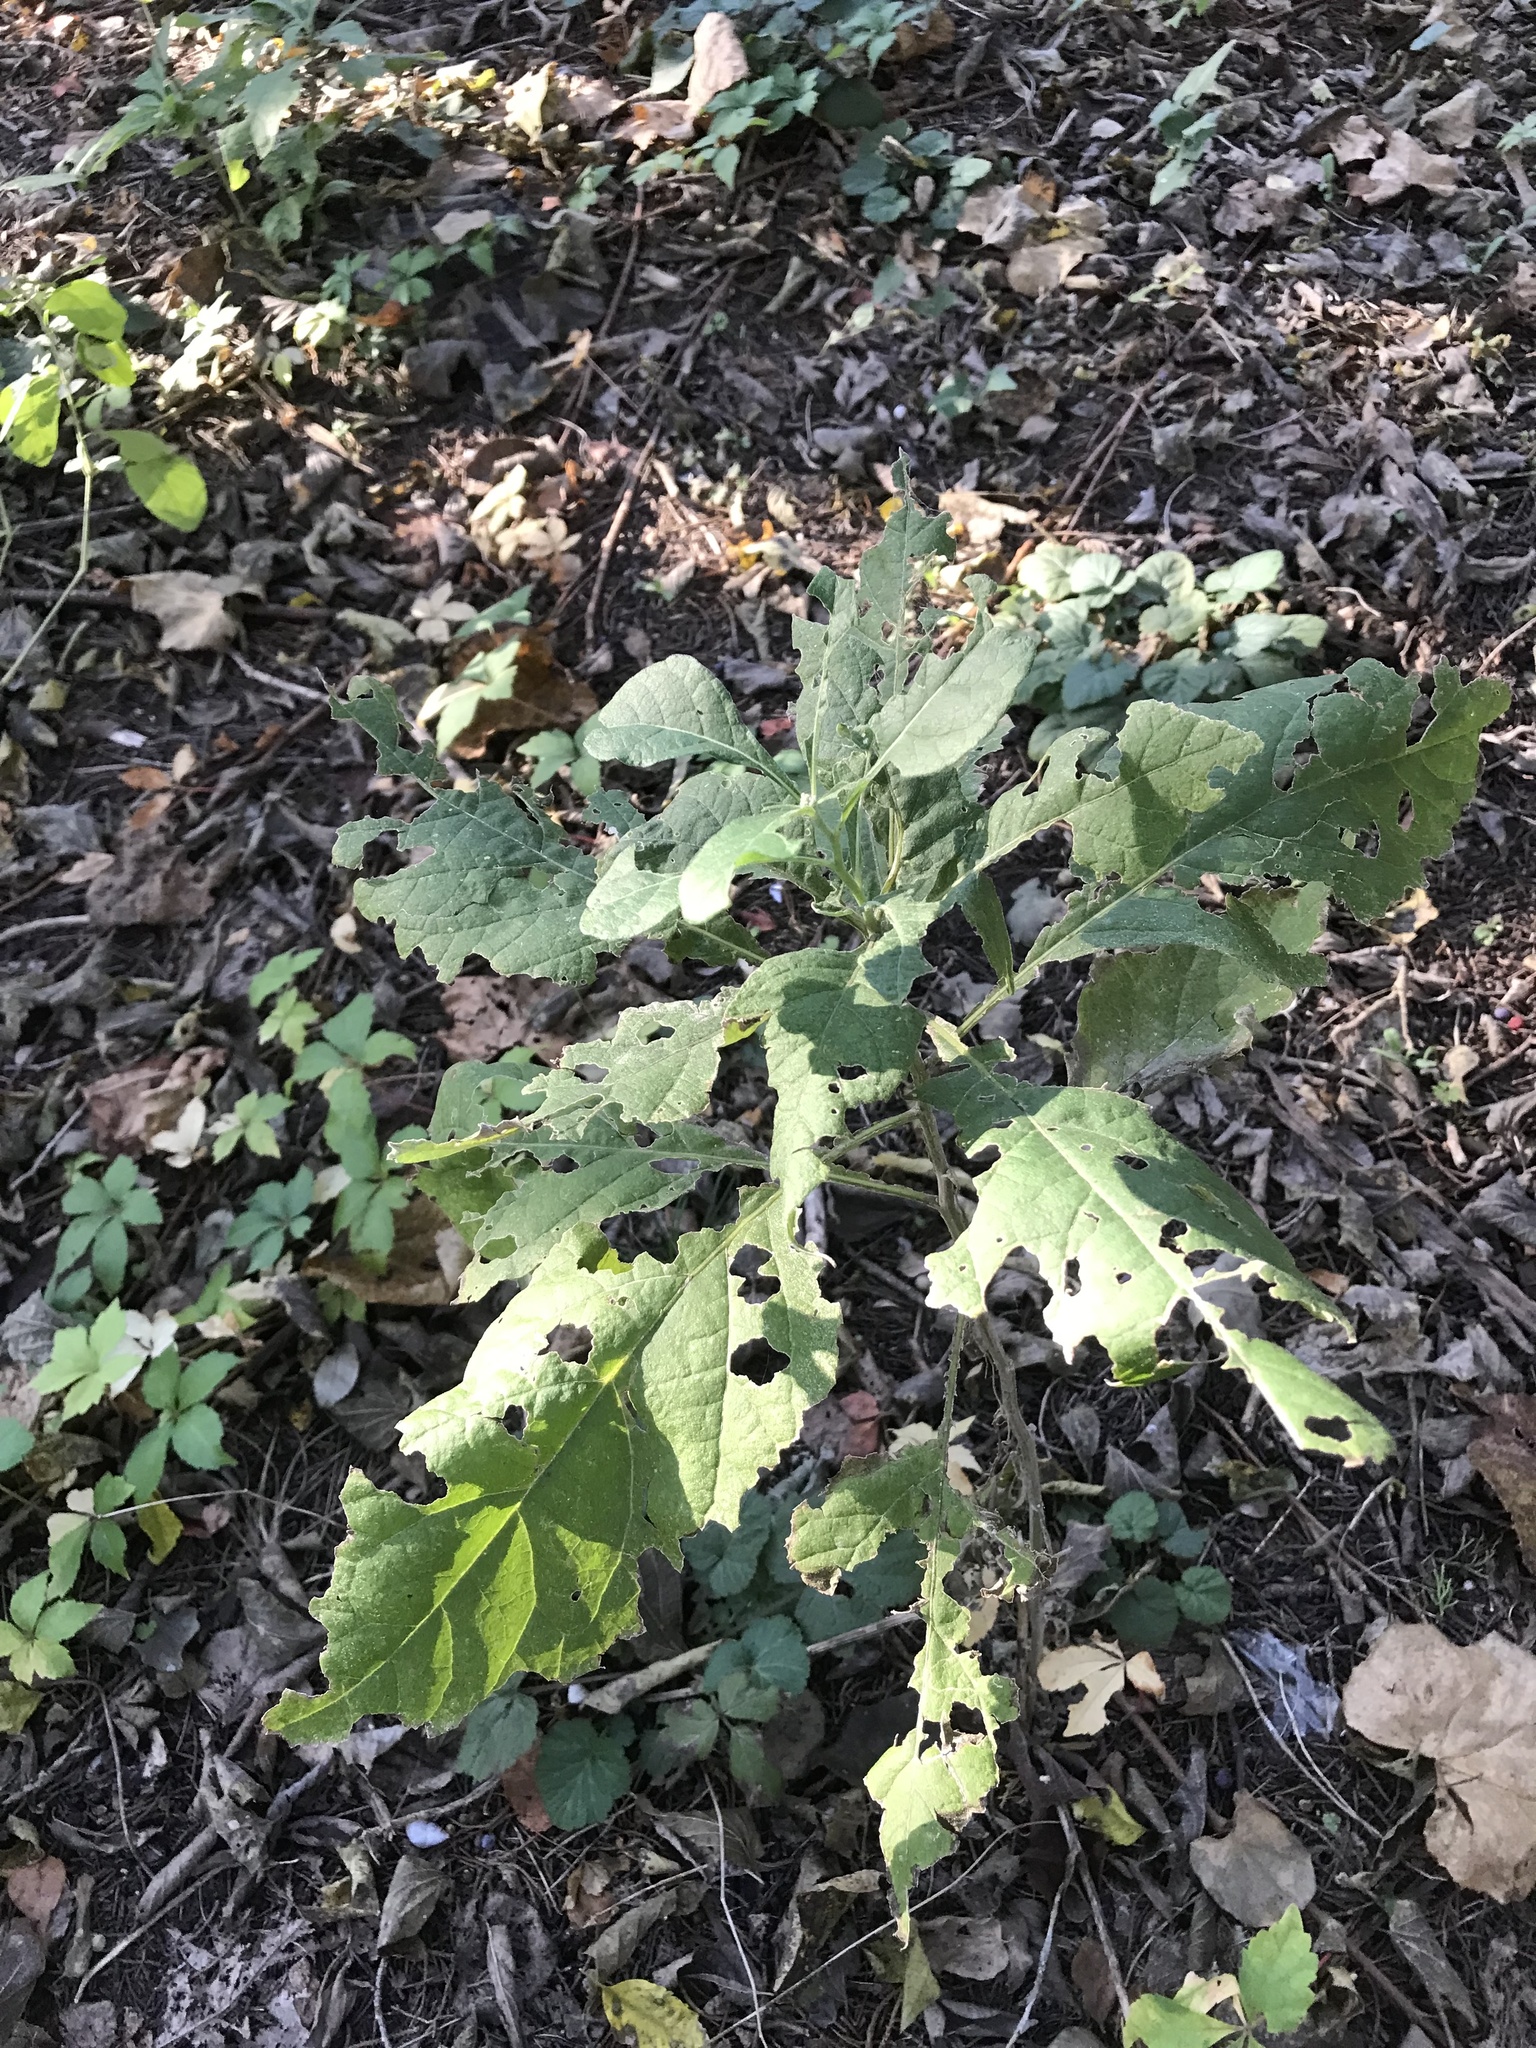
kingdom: Plantae
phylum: Tracheophyta
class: Magnoliopsida
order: Asterales
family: Asteraceae
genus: Verbesina
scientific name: Verbesina virginica
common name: Frostweed
